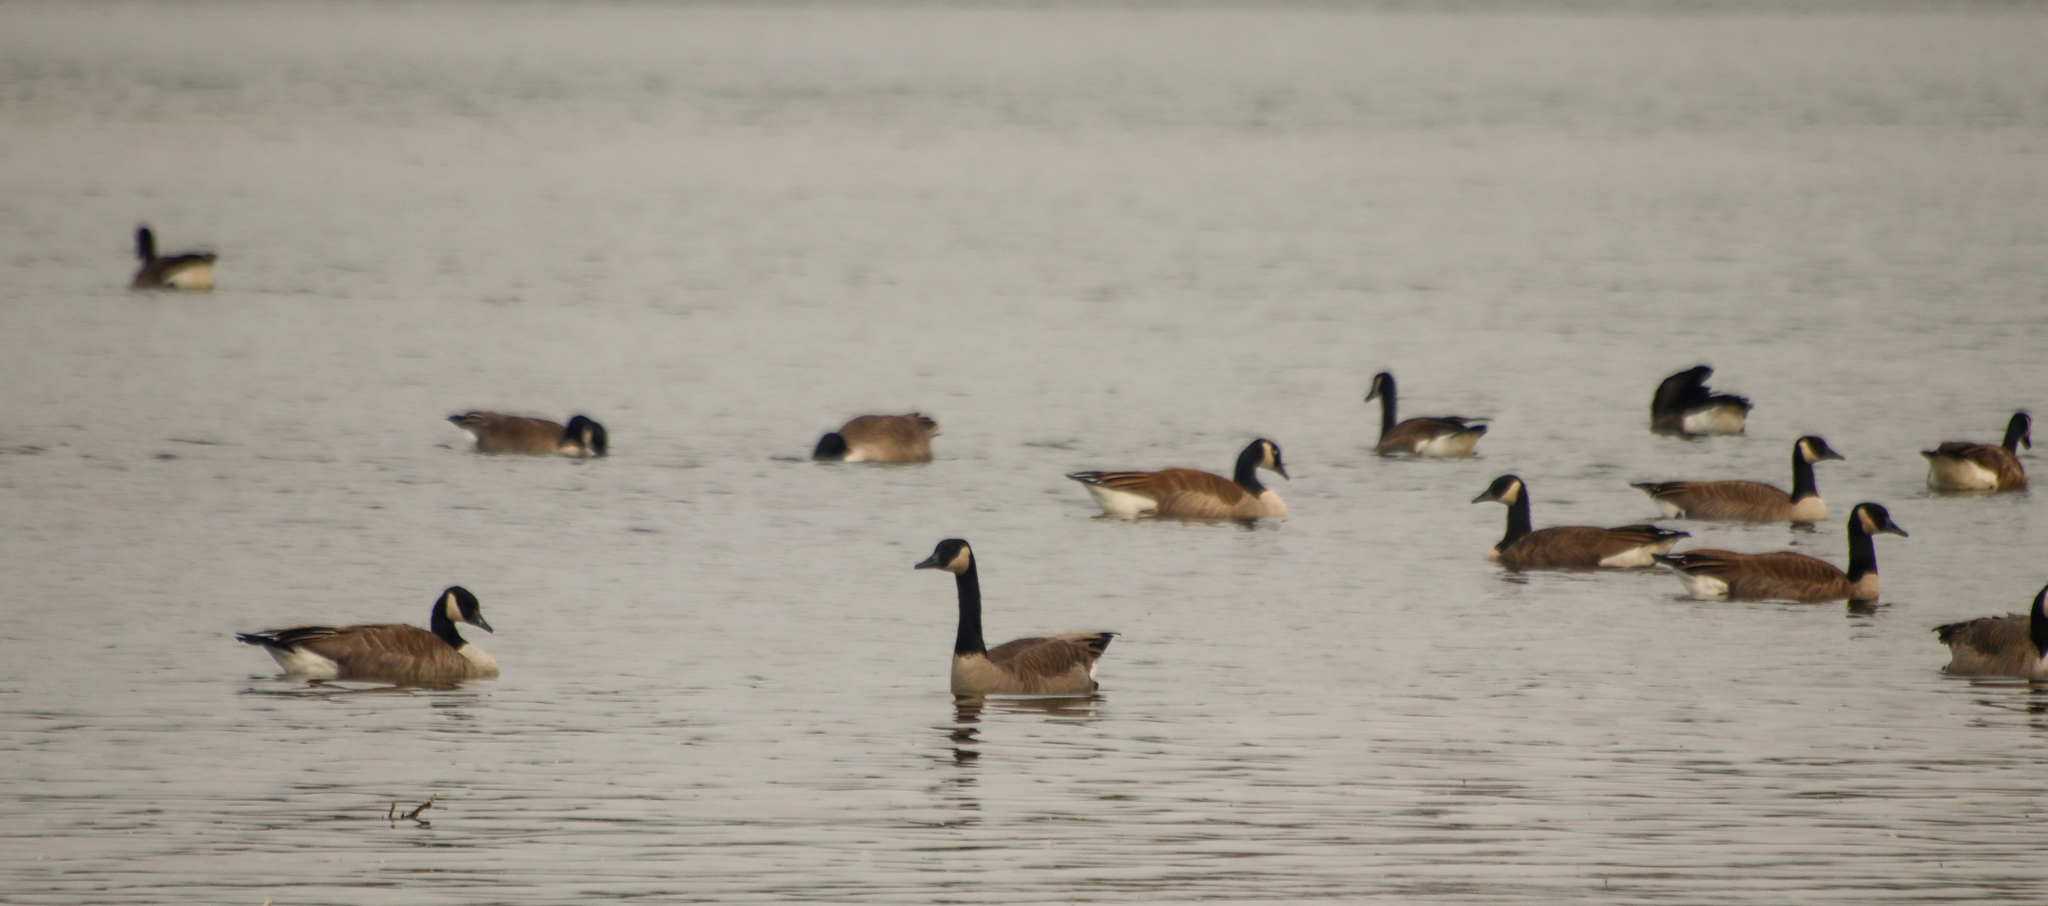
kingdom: Animalia
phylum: Chordata
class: Aves
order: Anseriformes
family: Anatidae
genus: Branta
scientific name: Branta canadensis
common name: Canada goose
